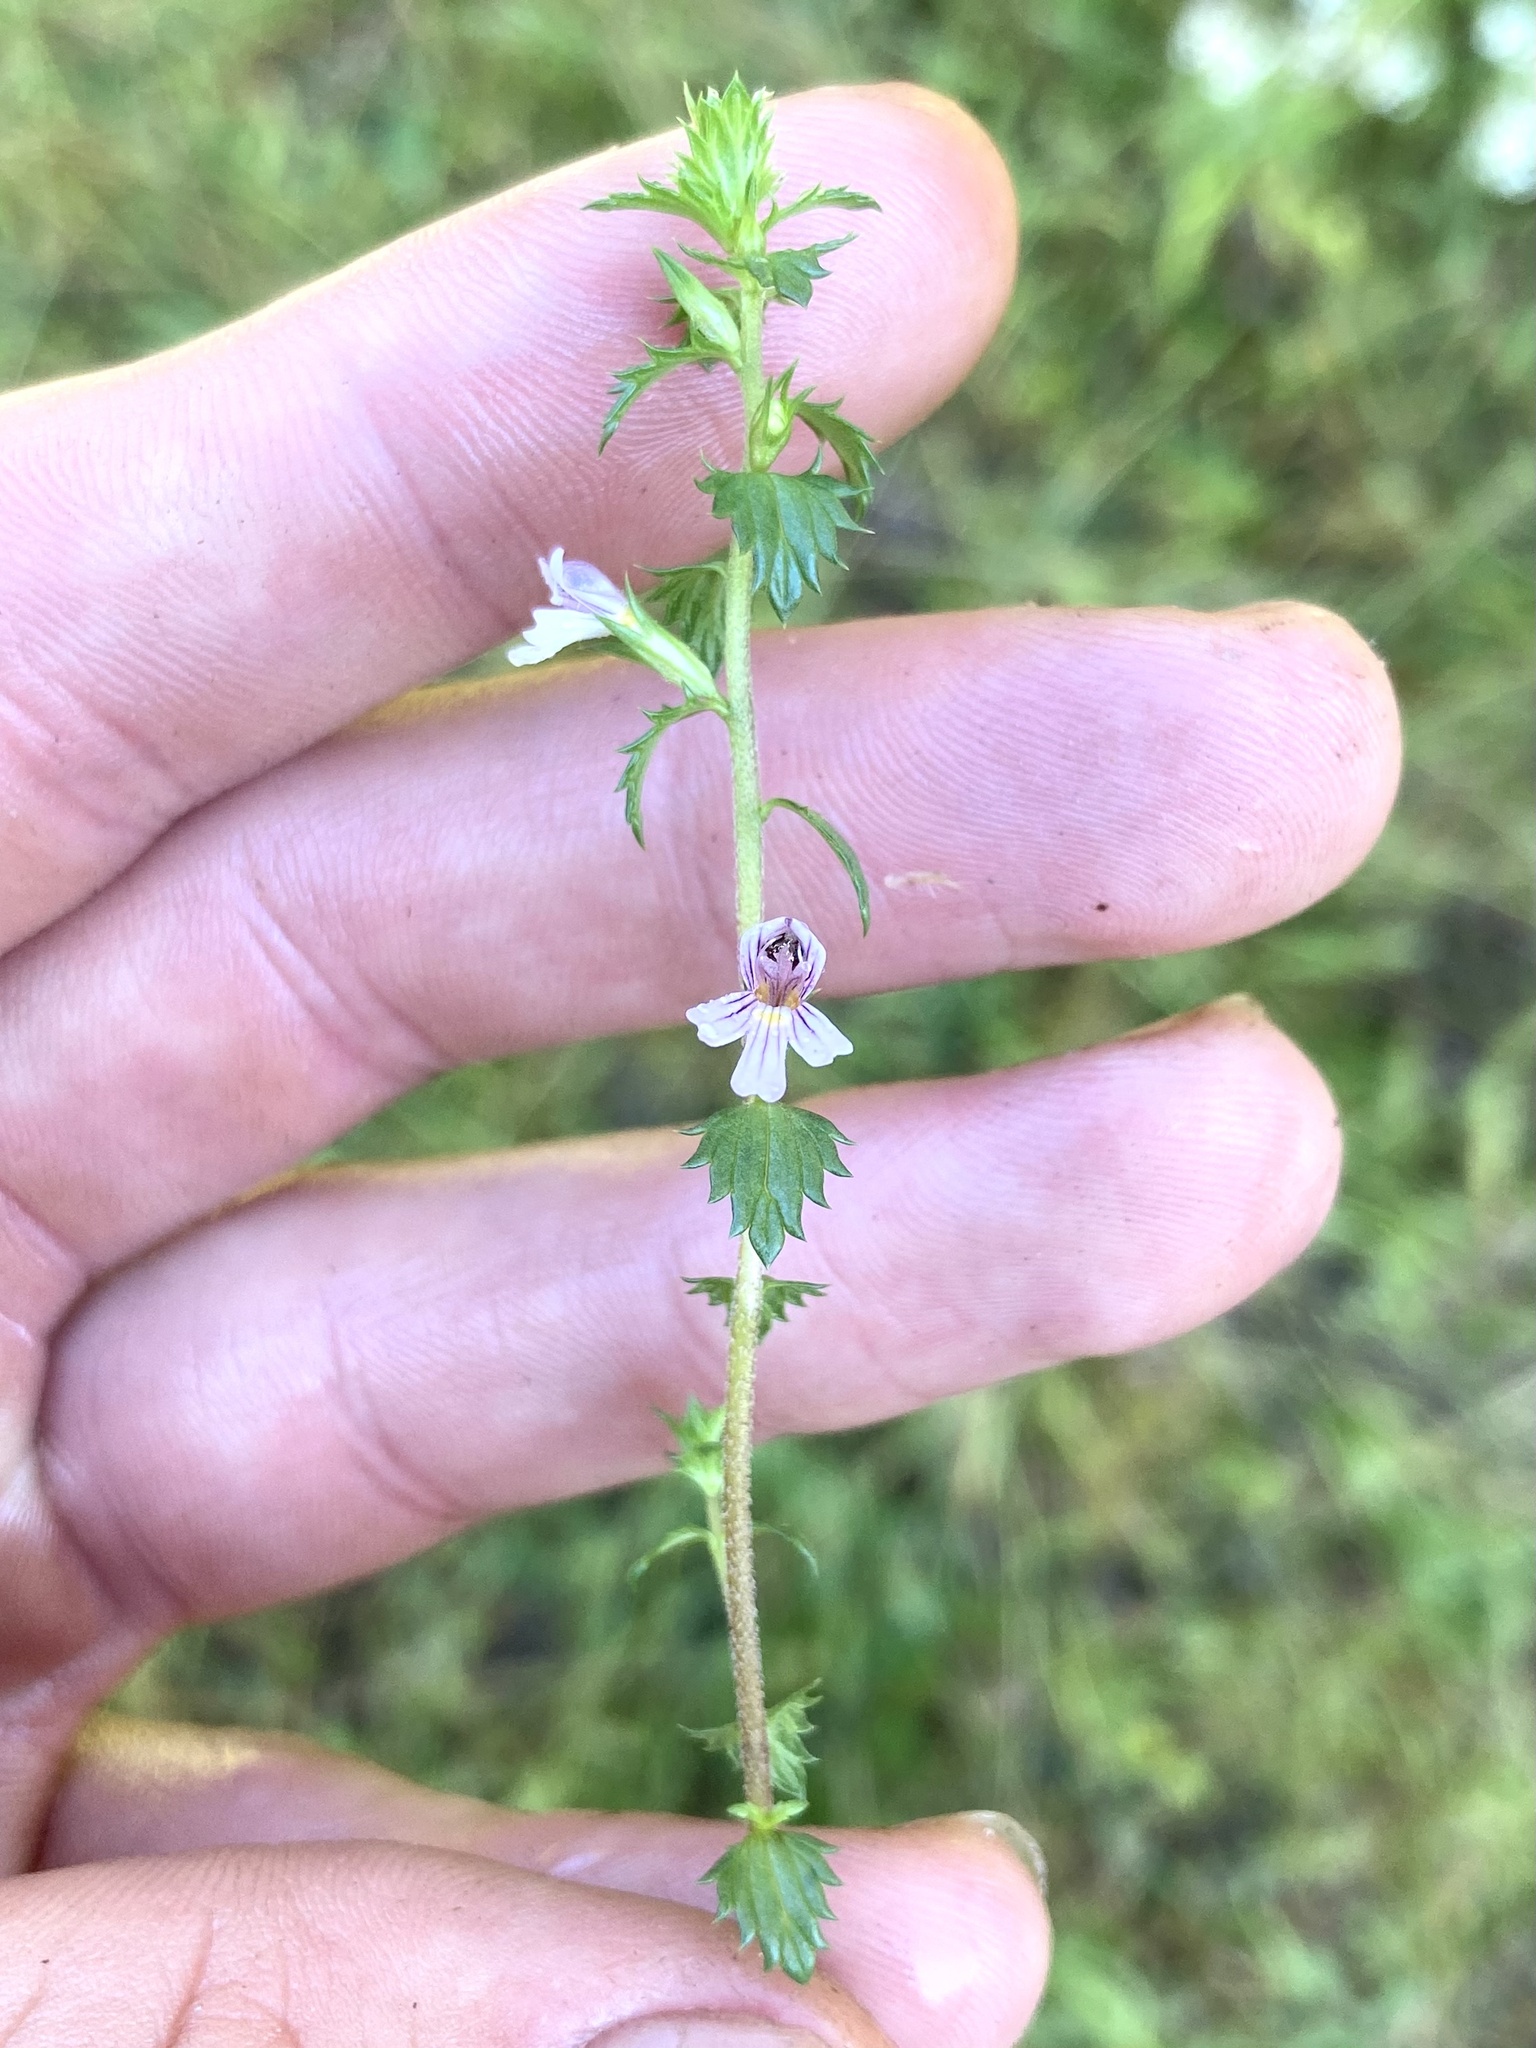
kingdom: Plantae
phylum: Tracheophyta
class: Magnoliopsida
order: Lamiales
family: Orobanchaceae
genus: Euphrasia
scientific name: Euphrasia nemorosa
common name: Common eyebright
